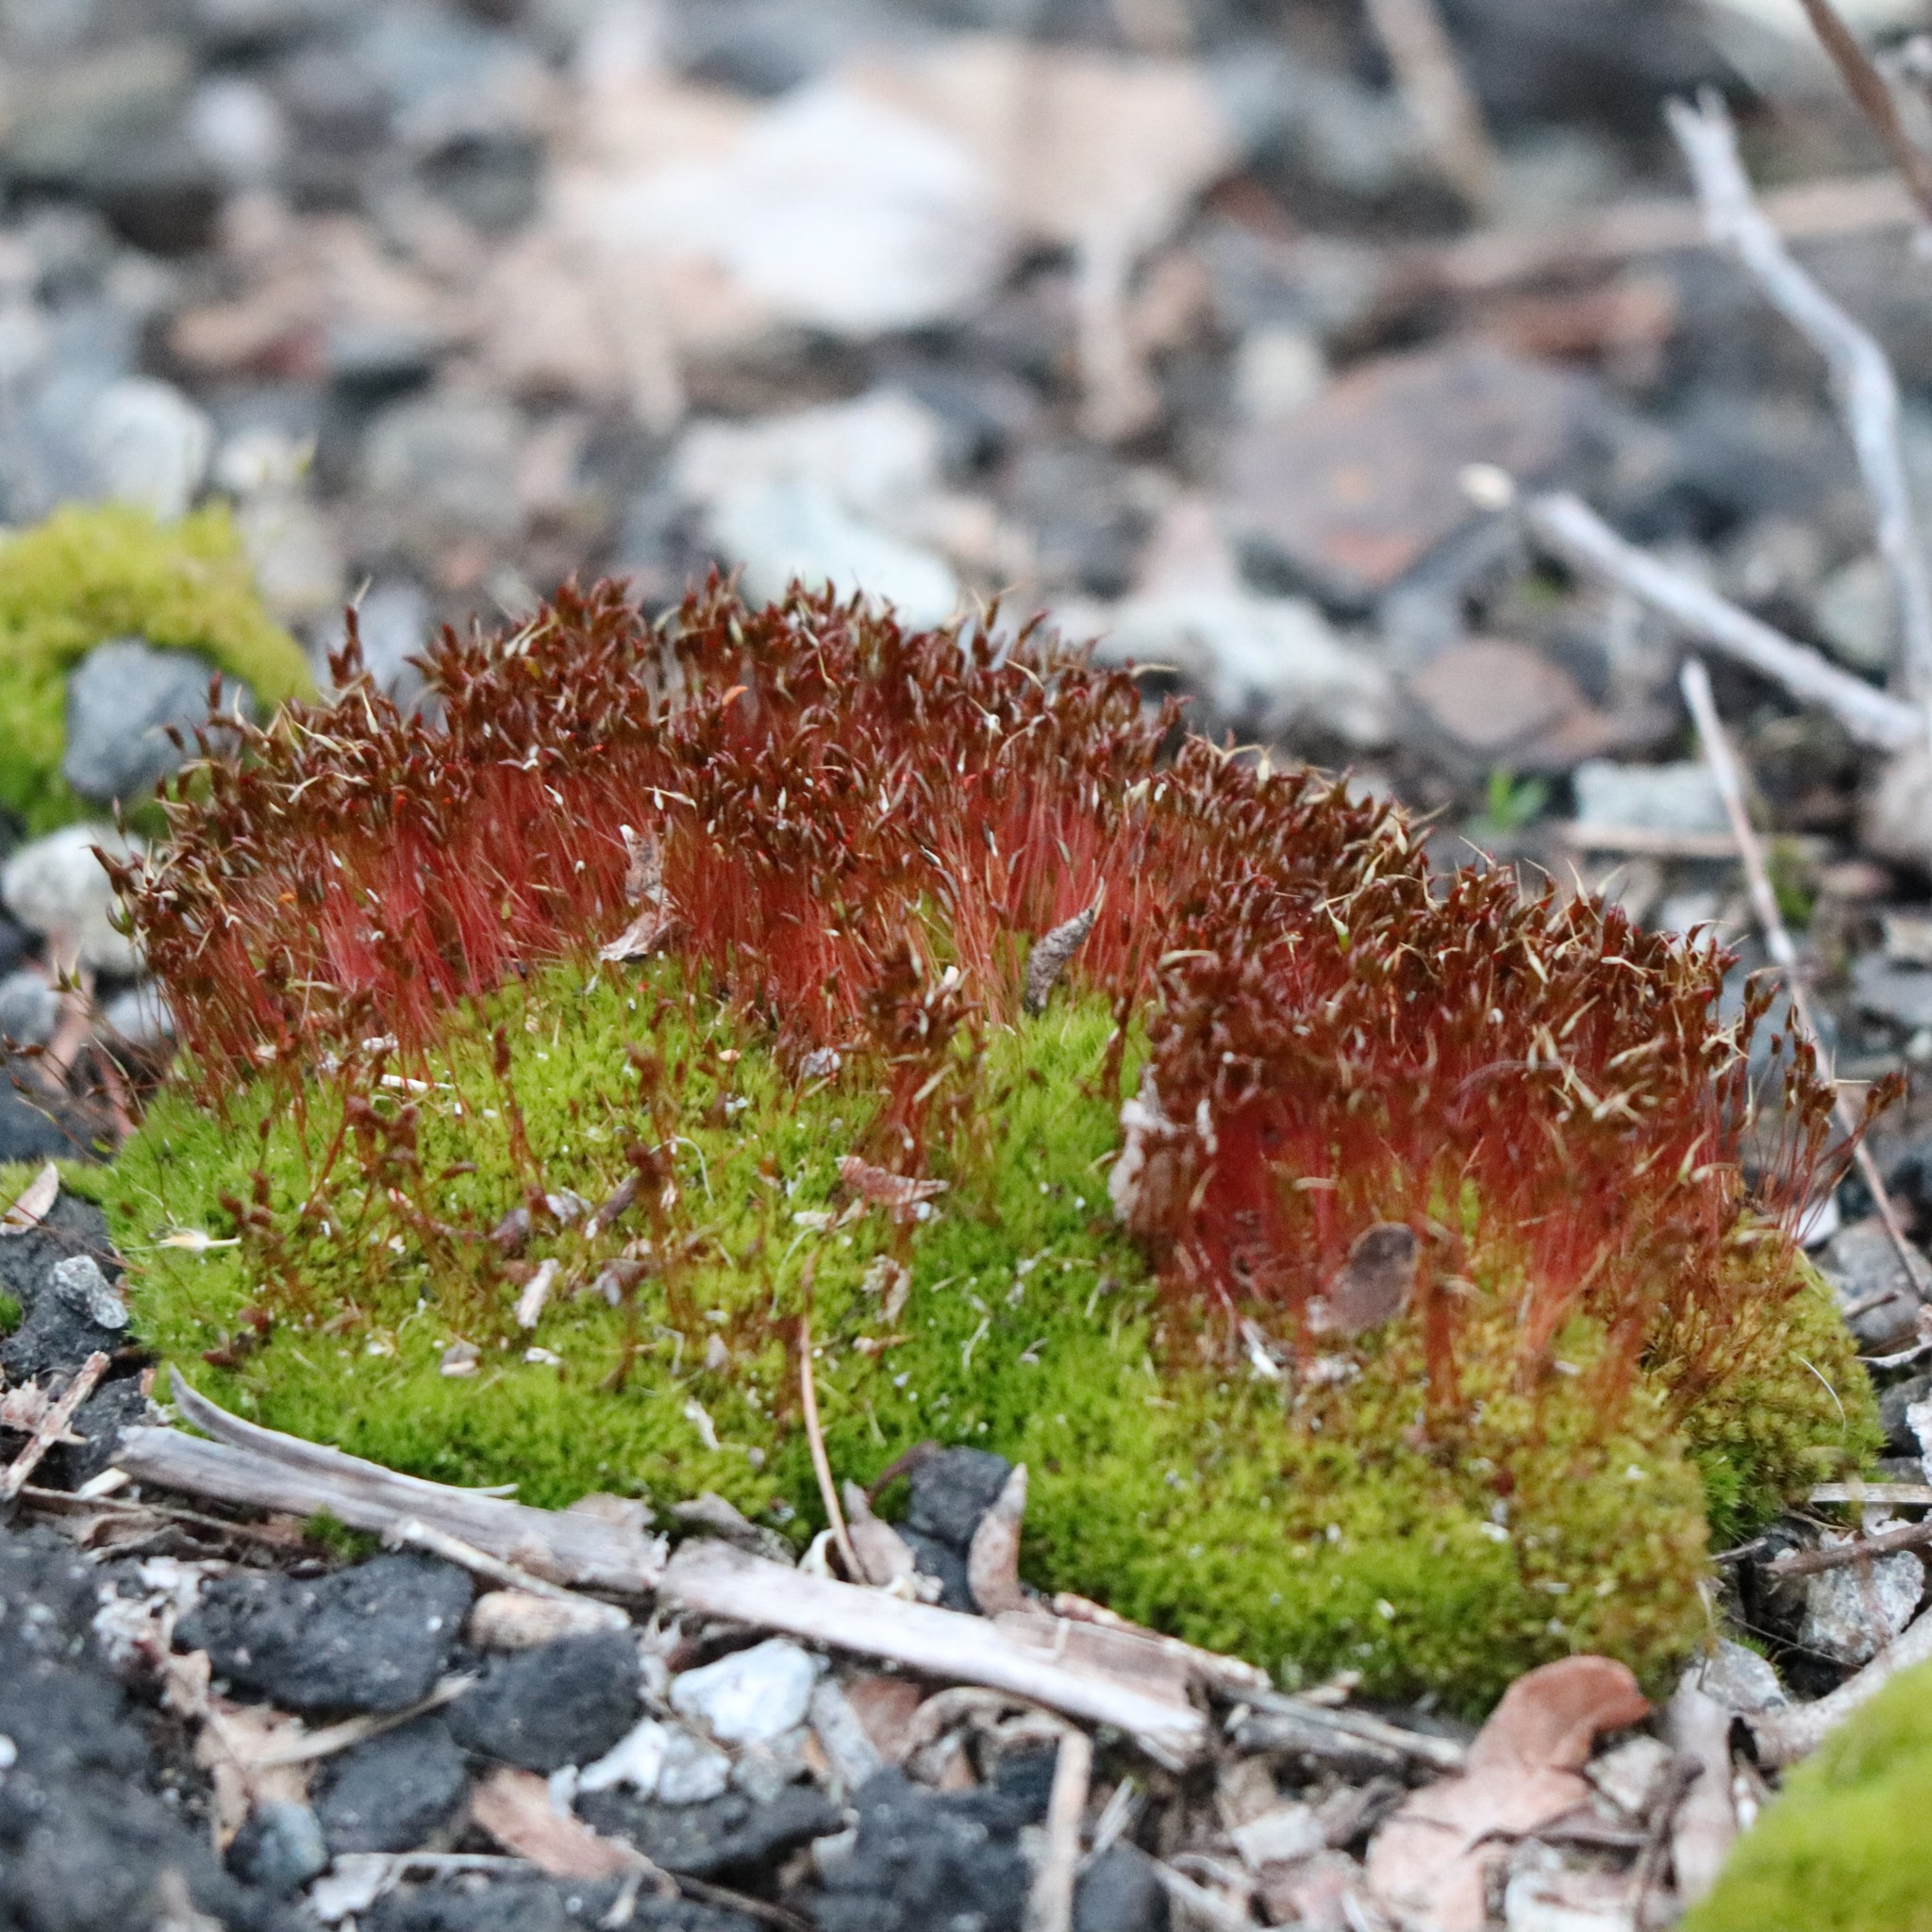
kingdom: Plantae
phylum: Bryophyta
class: Bryopsida
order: Dicranales
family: Ditrichaceae
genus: Ceratodon
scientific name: Ceratodon purpureus
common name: Redshank
